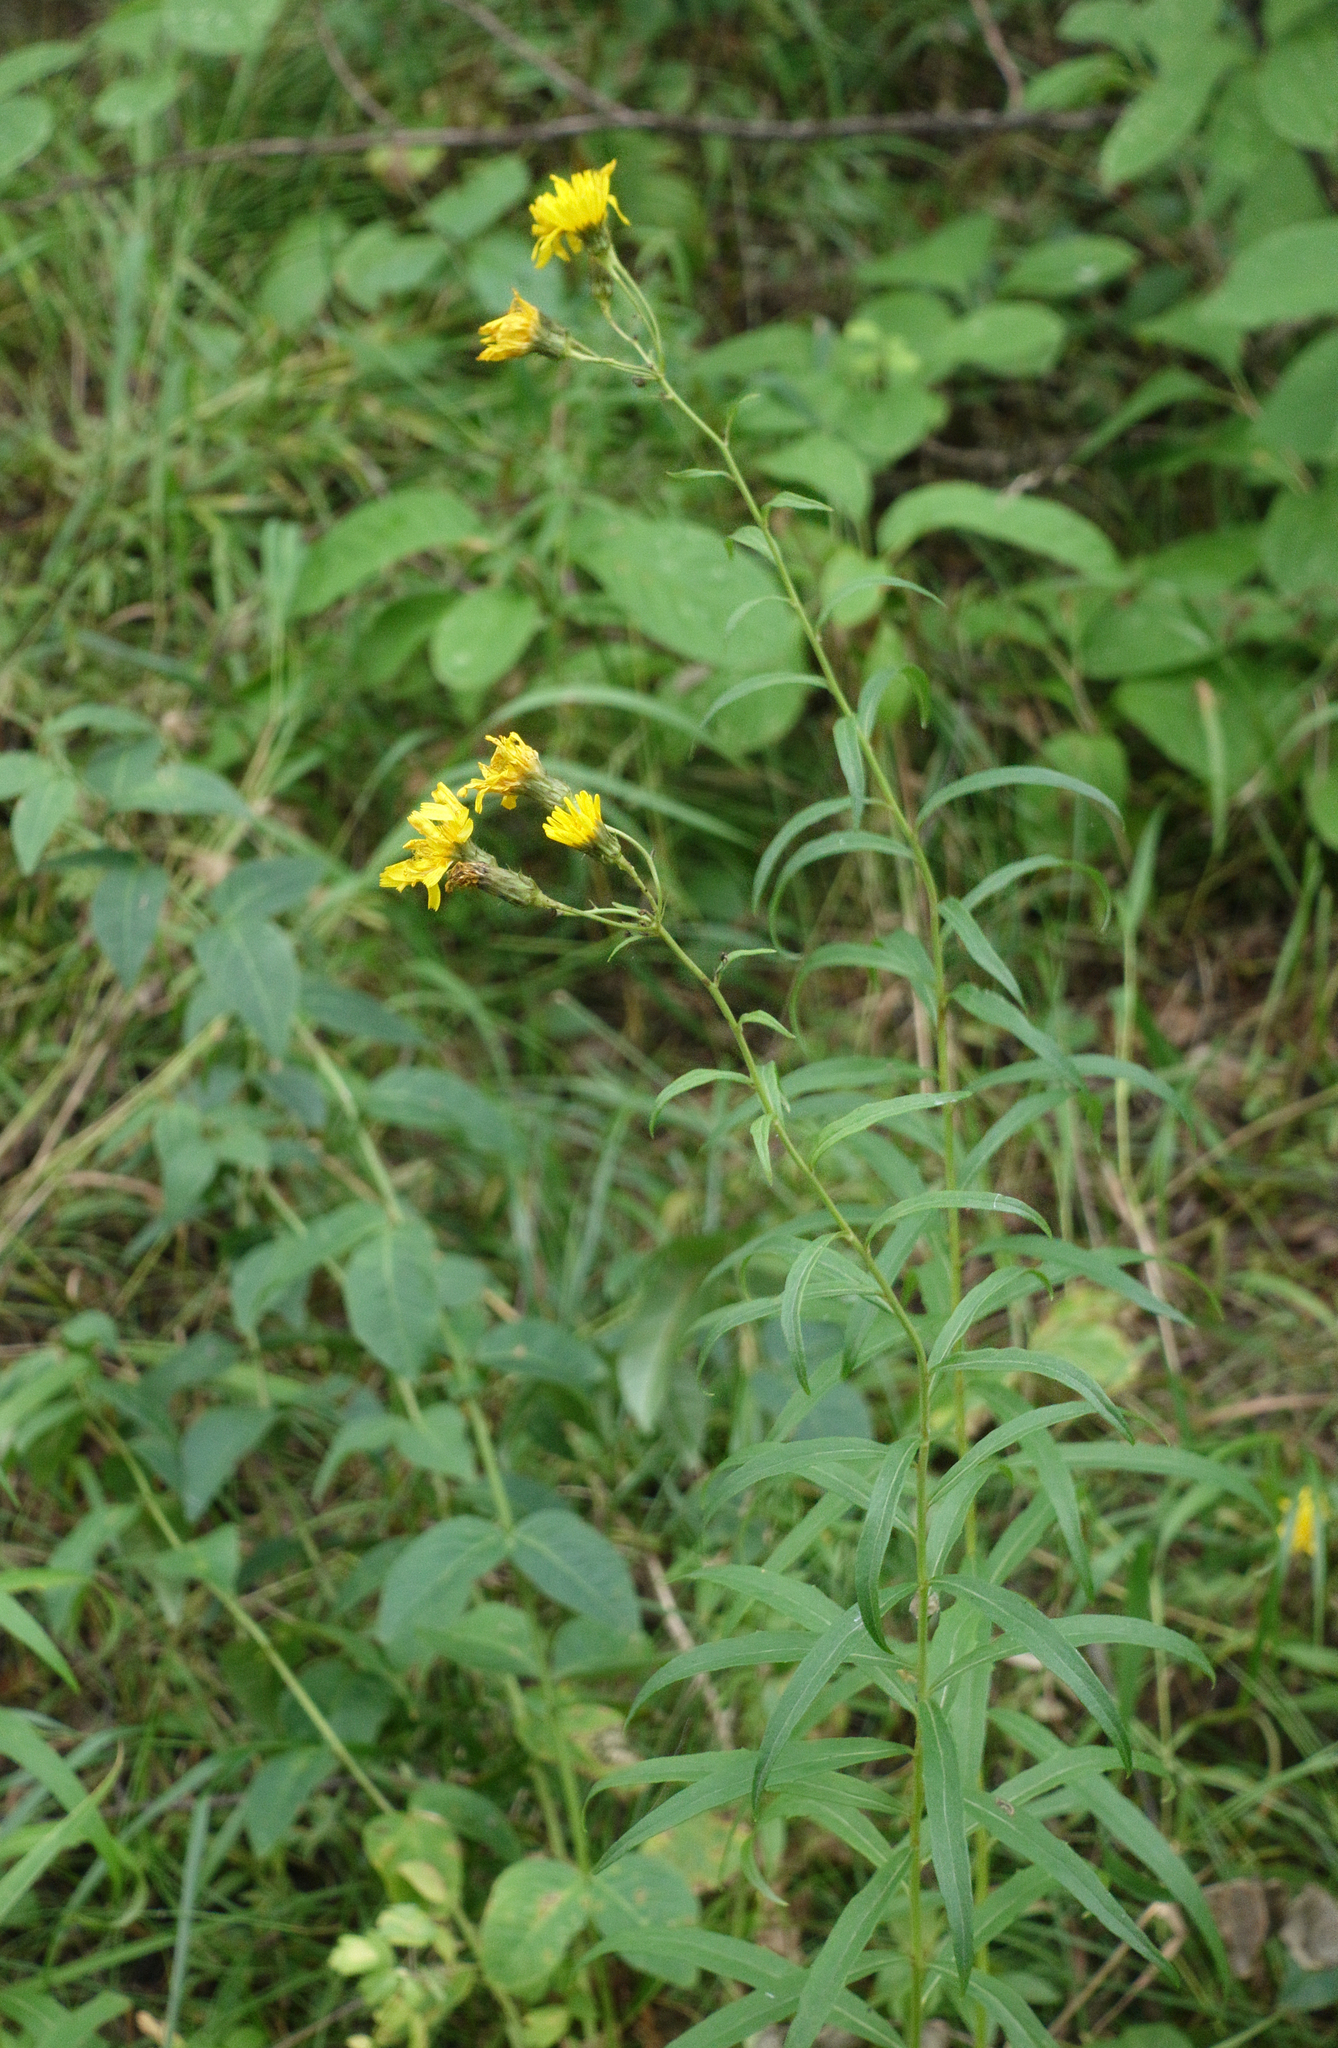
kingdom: Plantae
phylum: Tracheophyta
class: Magnoliopsida
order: Asterales
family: Asteraceae
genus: Hieracium
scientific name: Hieracium umbellatum
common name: Northern hawkweed
